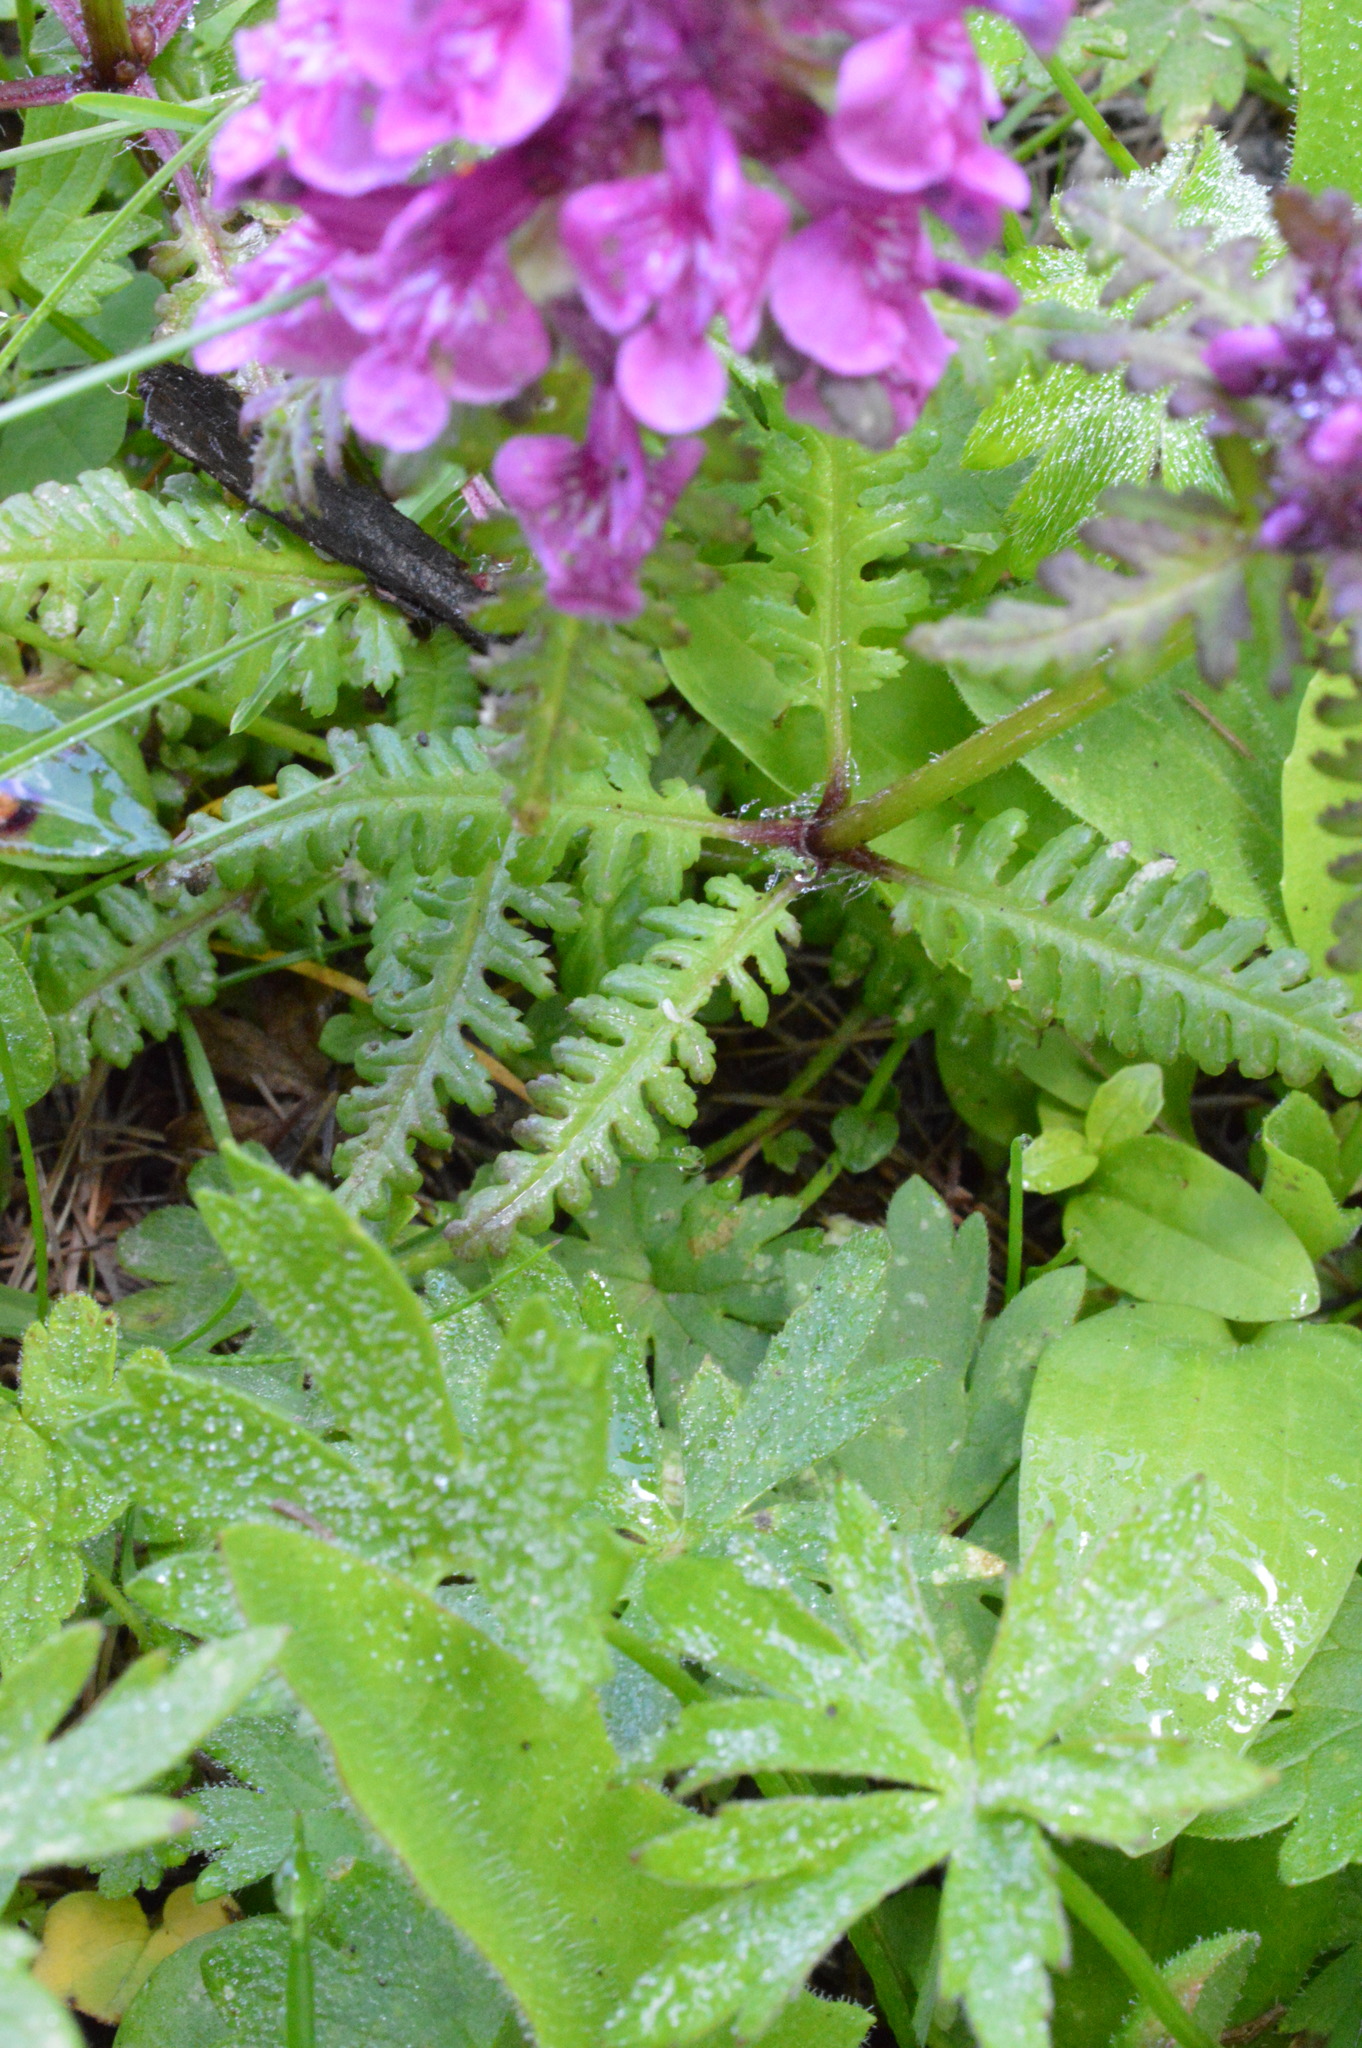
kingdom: Plantae
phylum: Tracheophyta
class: Magnoliopsida
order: Lamiales
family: Orobanchaceae
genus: Pedicularis
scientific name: Pedicularis verticillata
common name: Whorled lousewort
